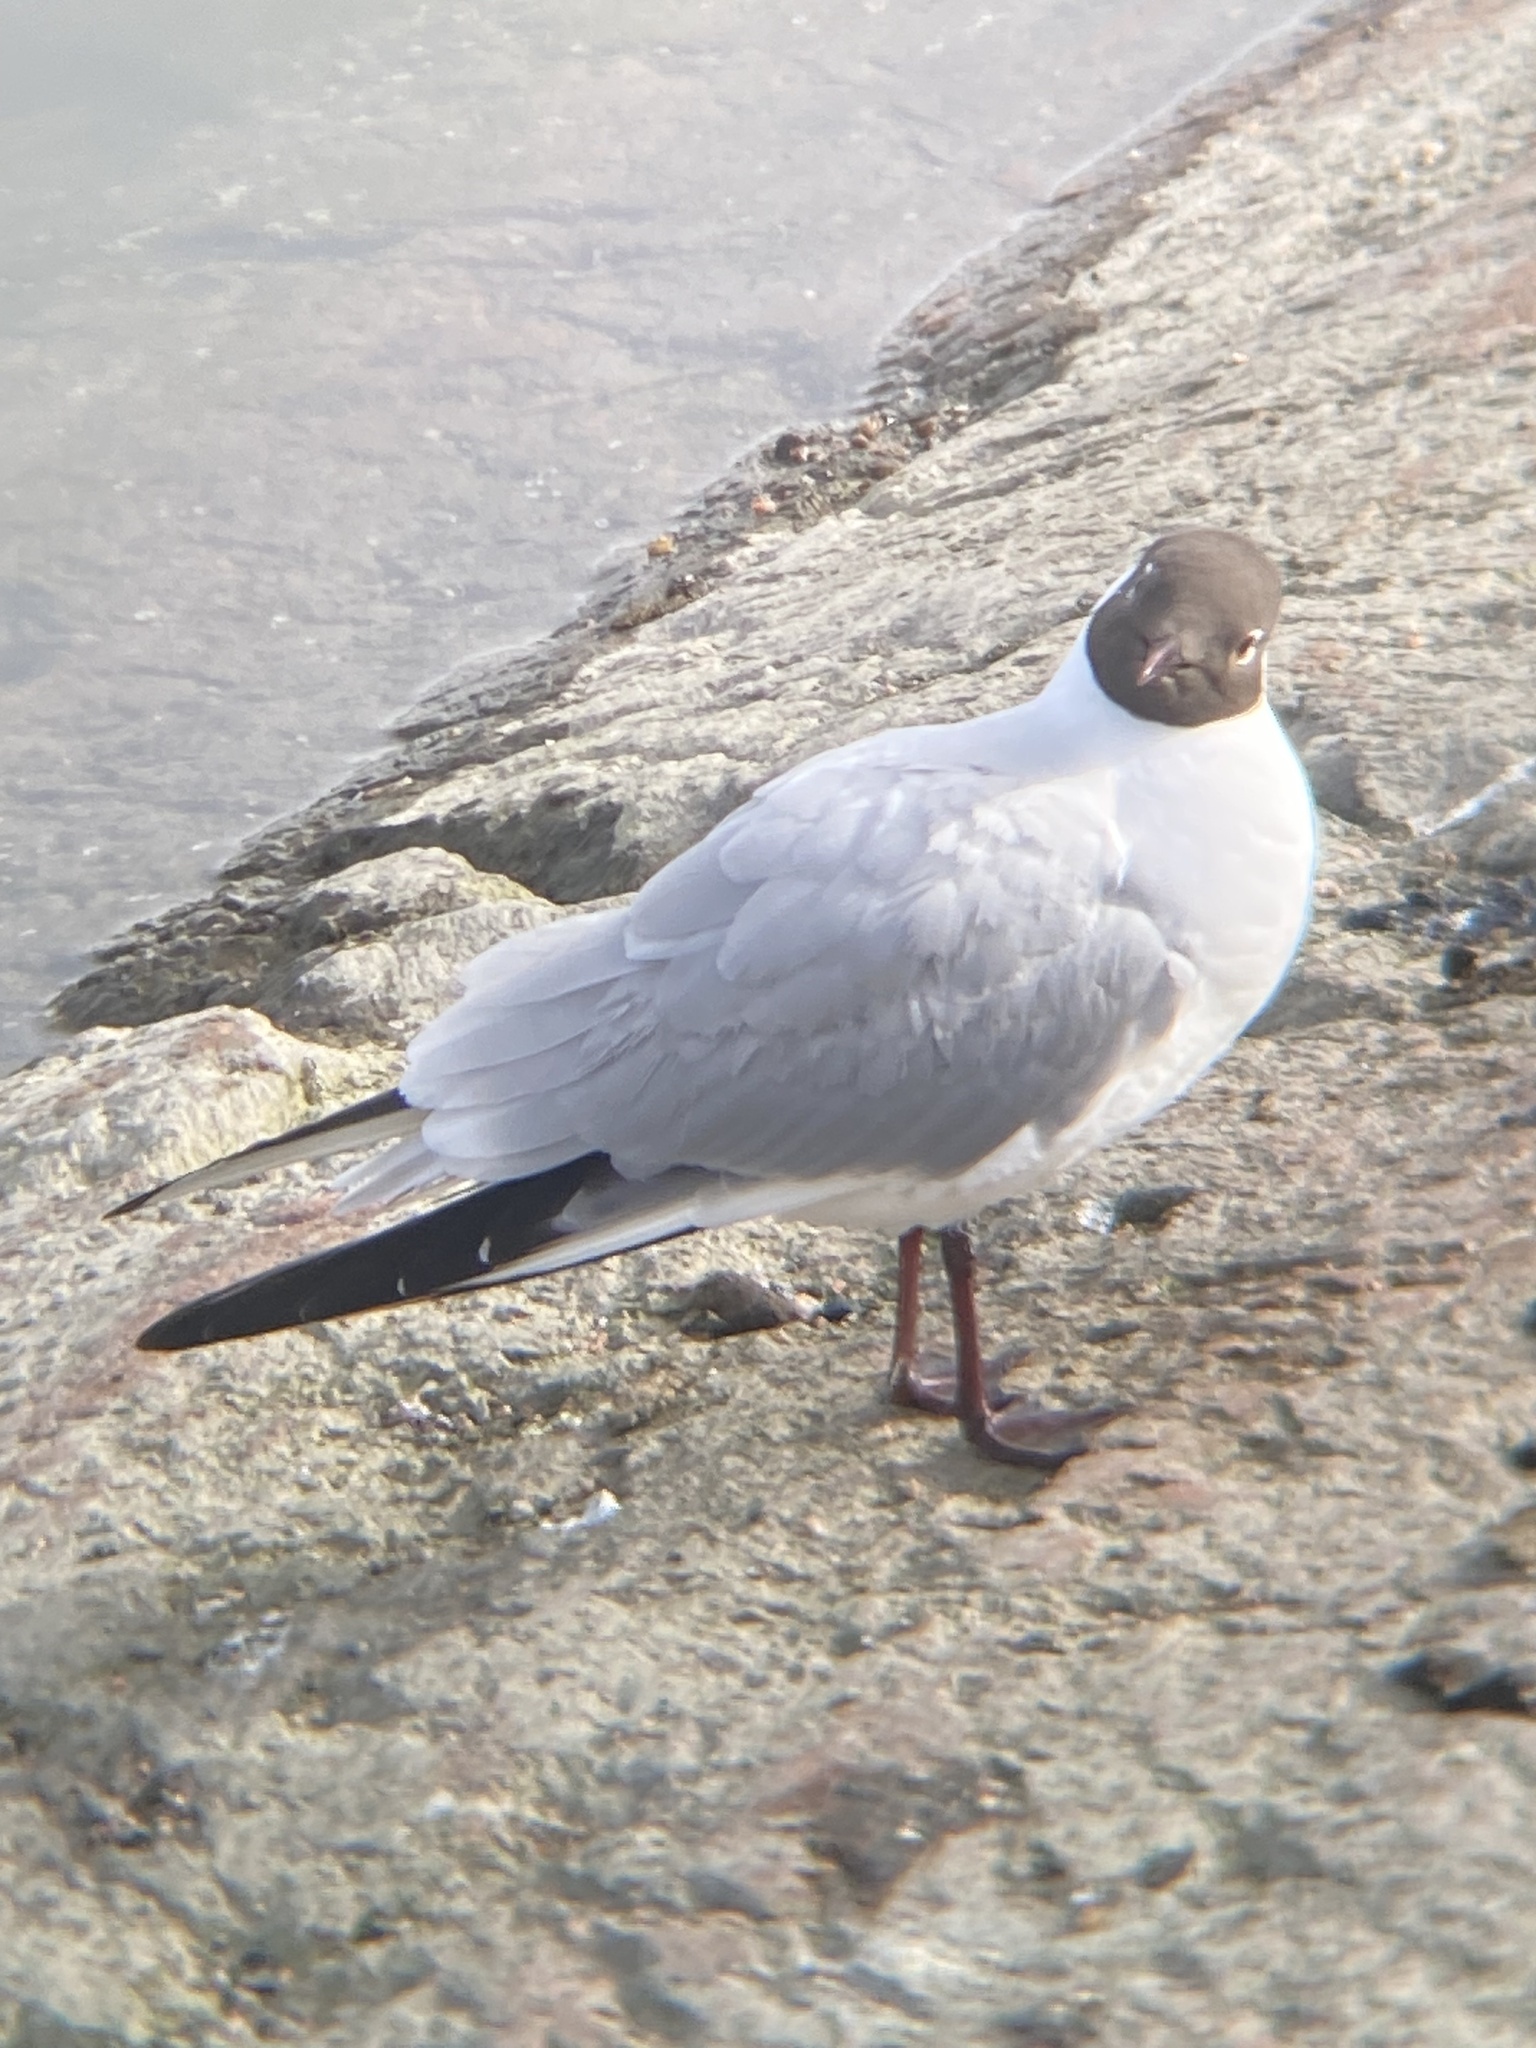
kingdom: Animalia
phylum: Chordata
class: Aves
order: Charadriiformes
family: Laridae
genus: Chroicocephalus
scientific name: Chroicocephalus ridibundus
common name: Black-headed gull
